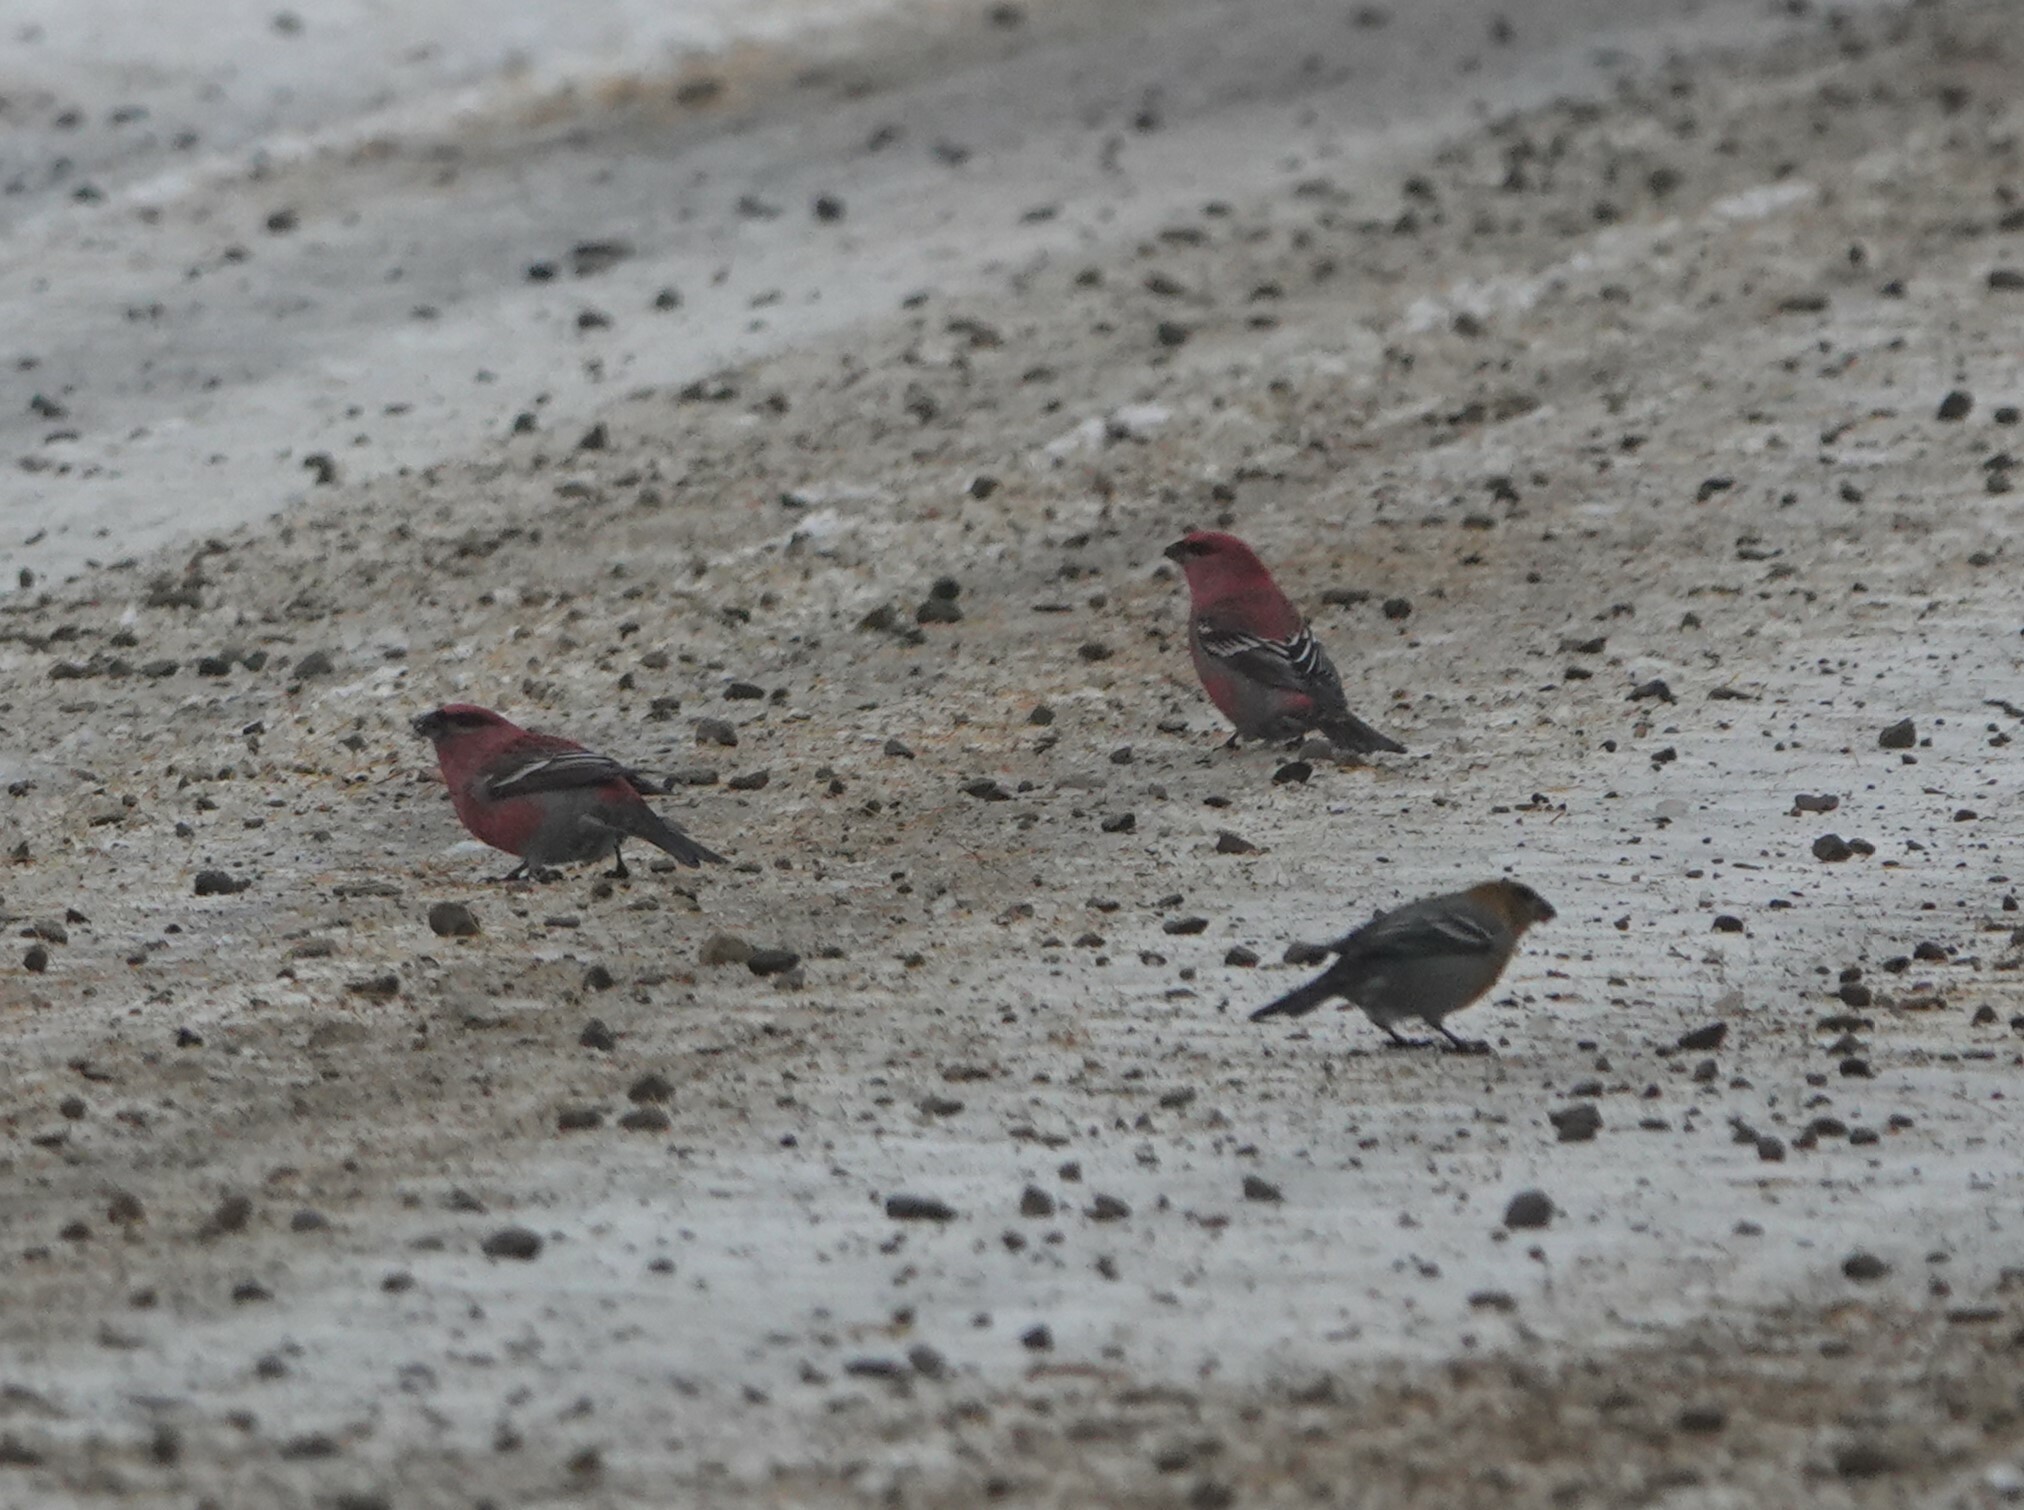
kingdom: Animalia
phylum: Chordata
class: Aves
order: Passeriformes
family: Fringillidae
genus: Pinicola
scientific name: Pinicola enucleator
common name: Pine grosbeak
